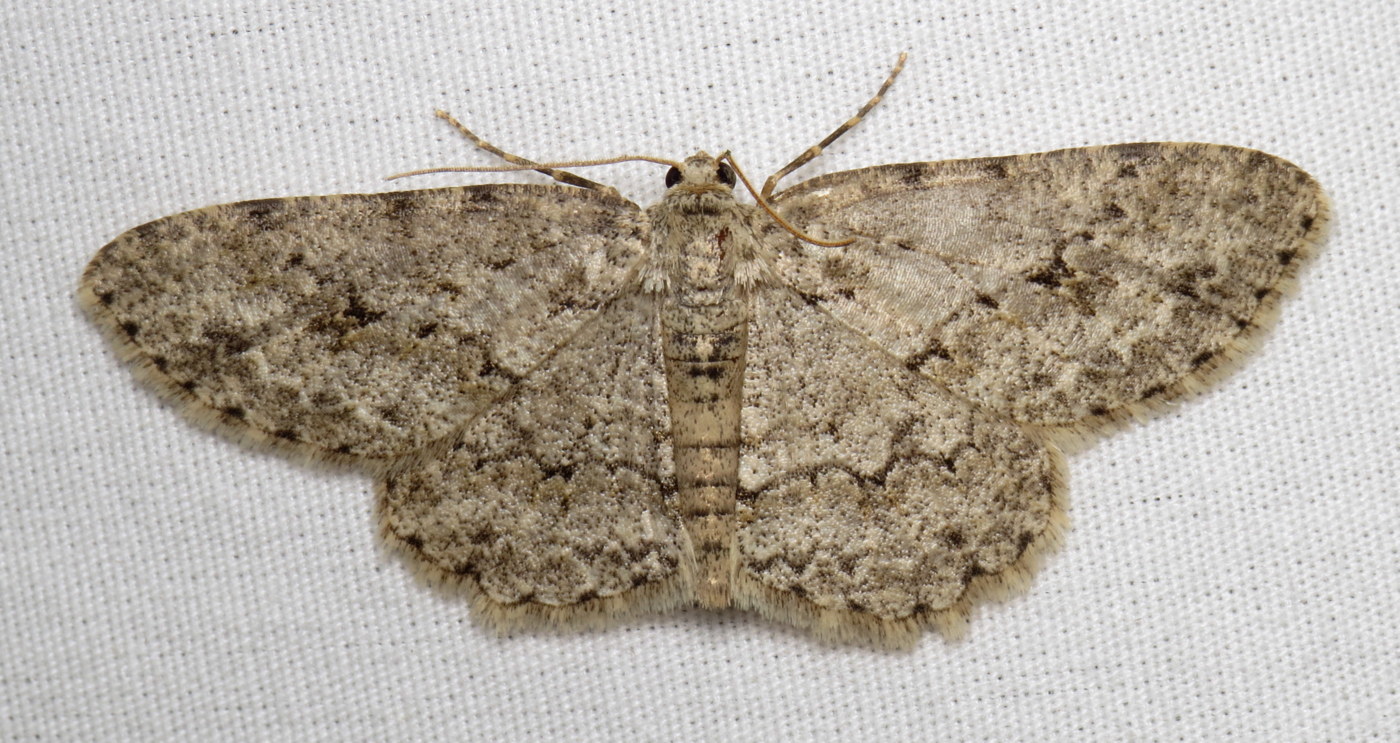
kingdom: Animalia
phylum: Arthropoda
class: Insecta
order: Lepidoptera
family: Geometridae
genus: Ectropis
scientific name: Ectropis crepuscularia
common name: Engrailed
